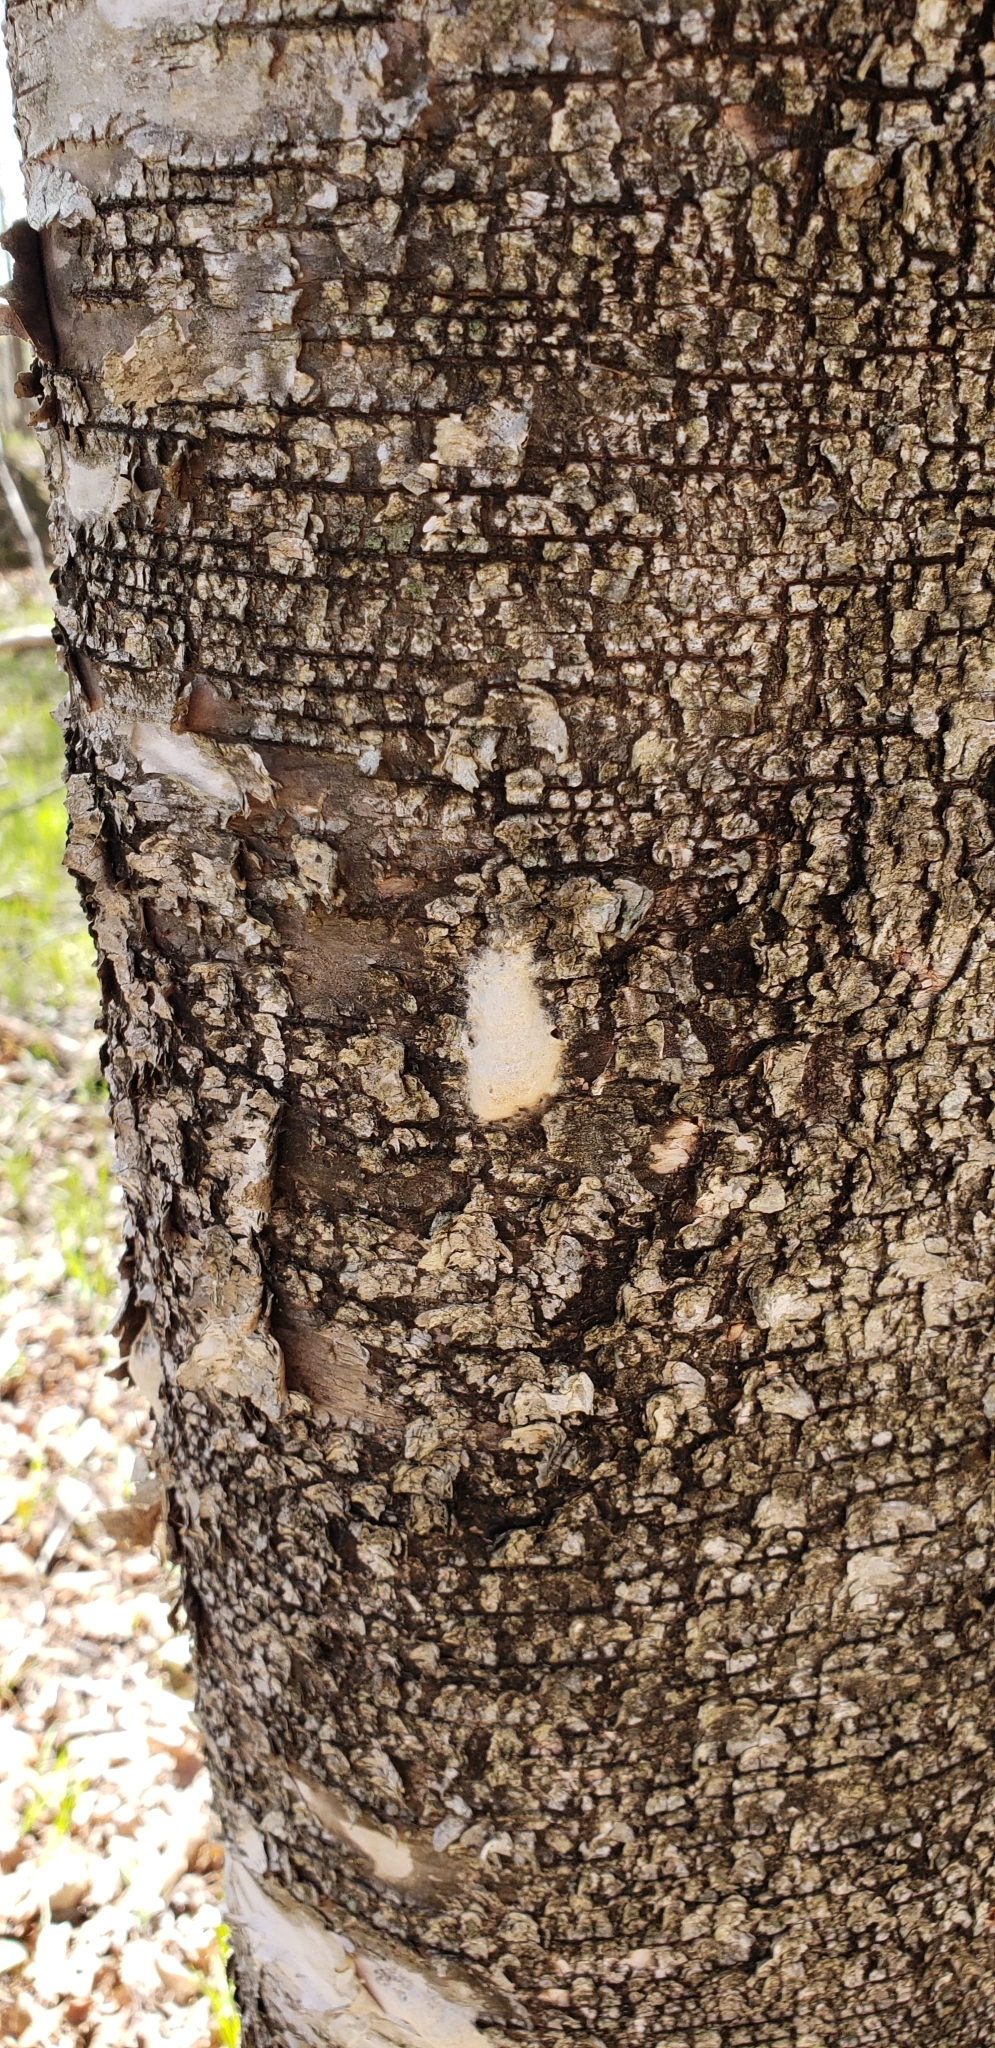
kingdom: Animalia
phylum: Arthropoda
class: Insecta
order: Lepidoptera
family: Erebidae
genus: Lymantria
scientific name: Lymantria dispar
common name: Gypsy moth
